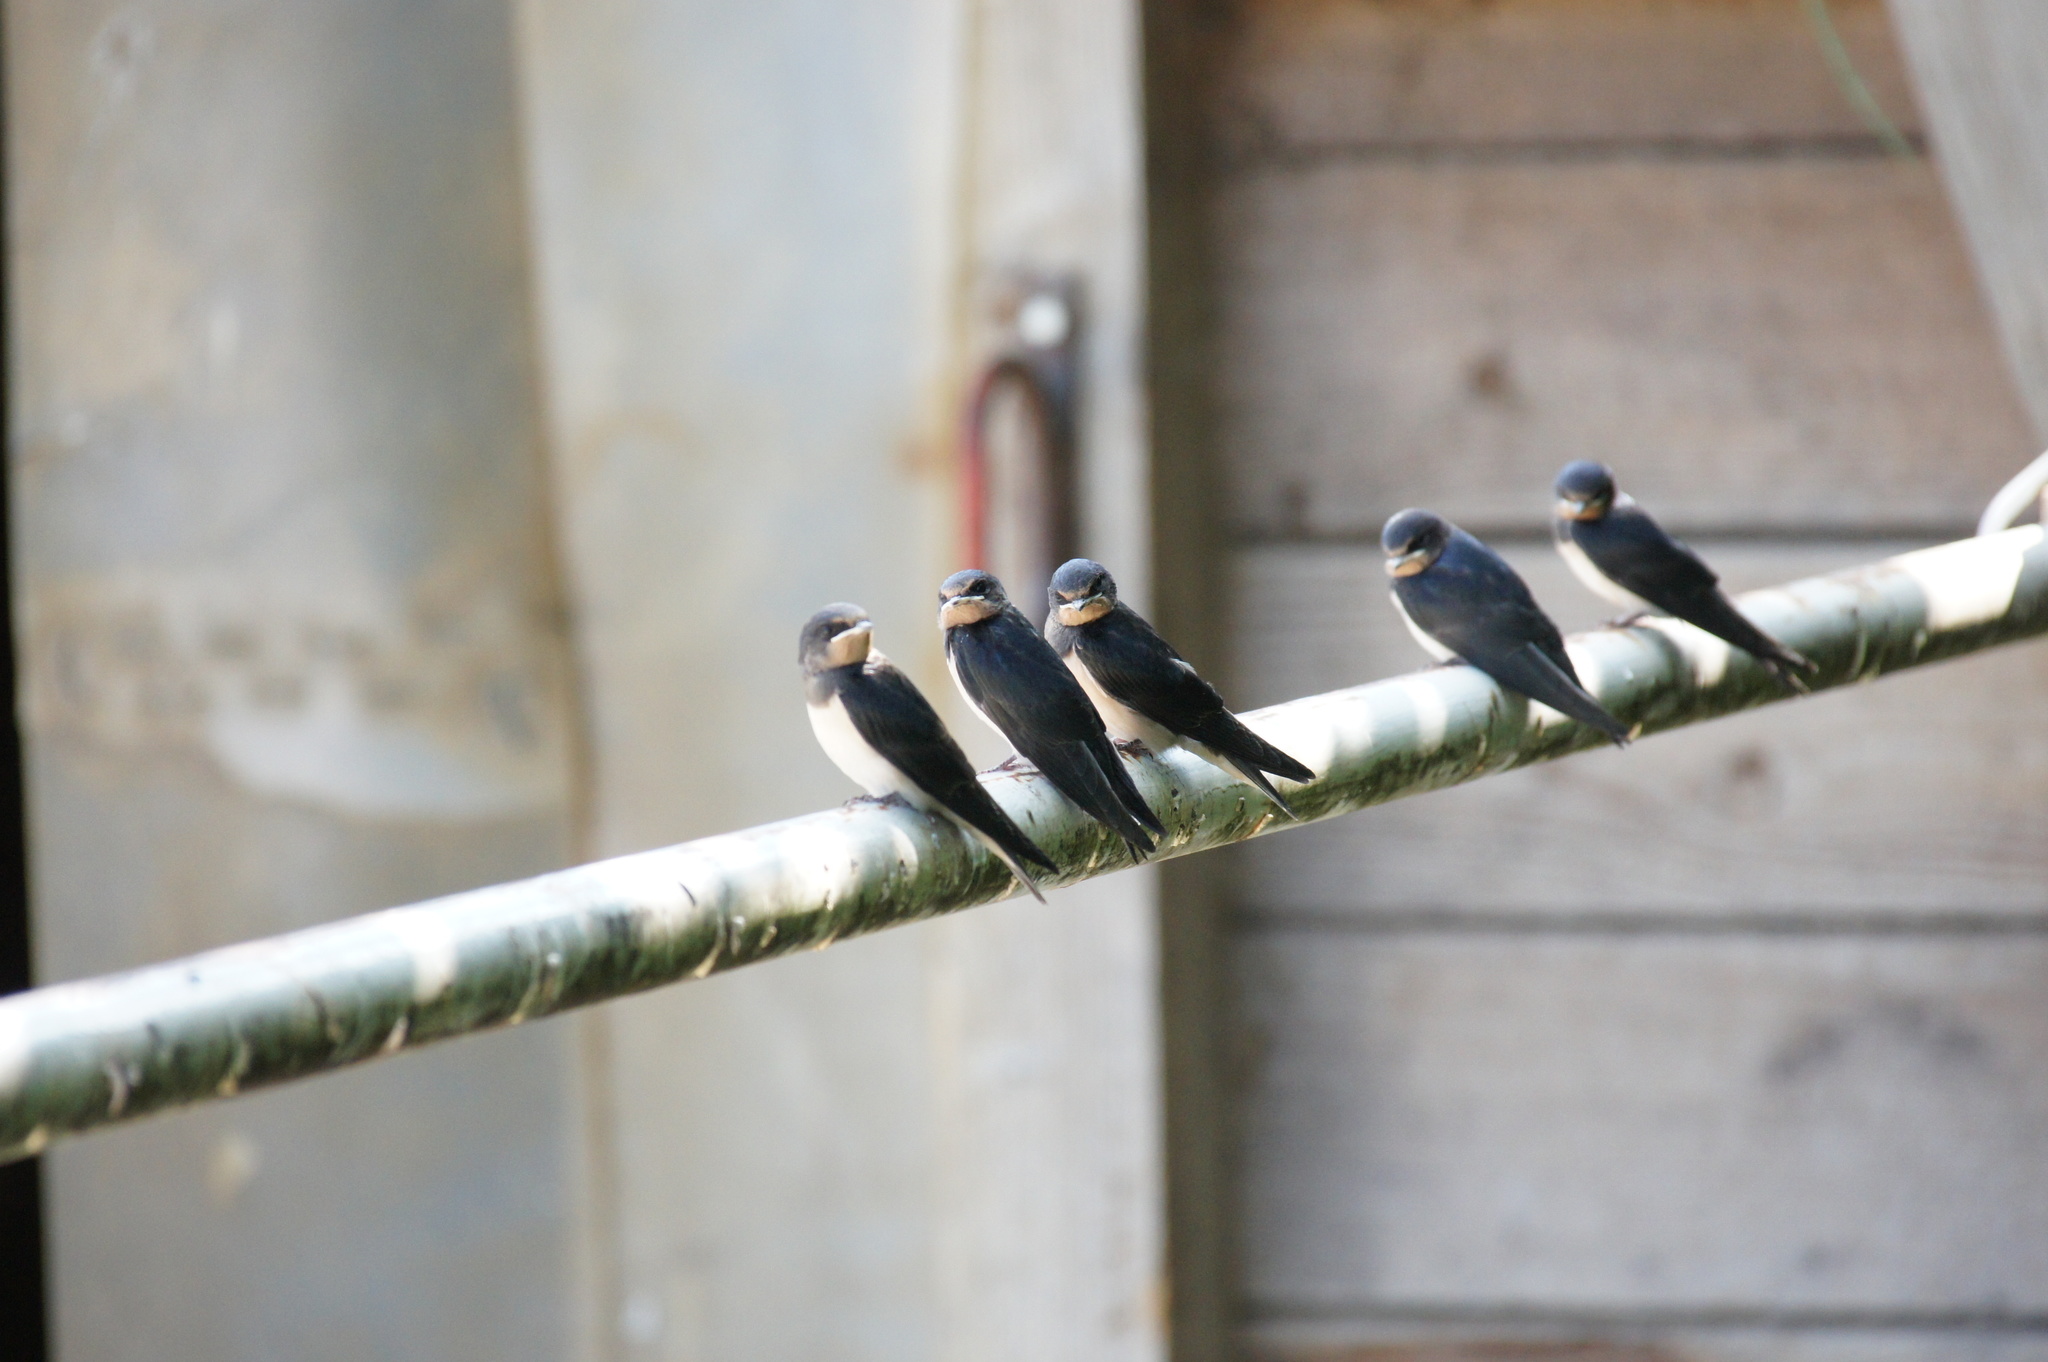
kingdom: Animalia
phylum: Chordata
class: Aves
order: Passeriformes
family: Hirundinidae
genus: Hirundo
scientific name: Hirundo rustica
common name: Barn swallow
